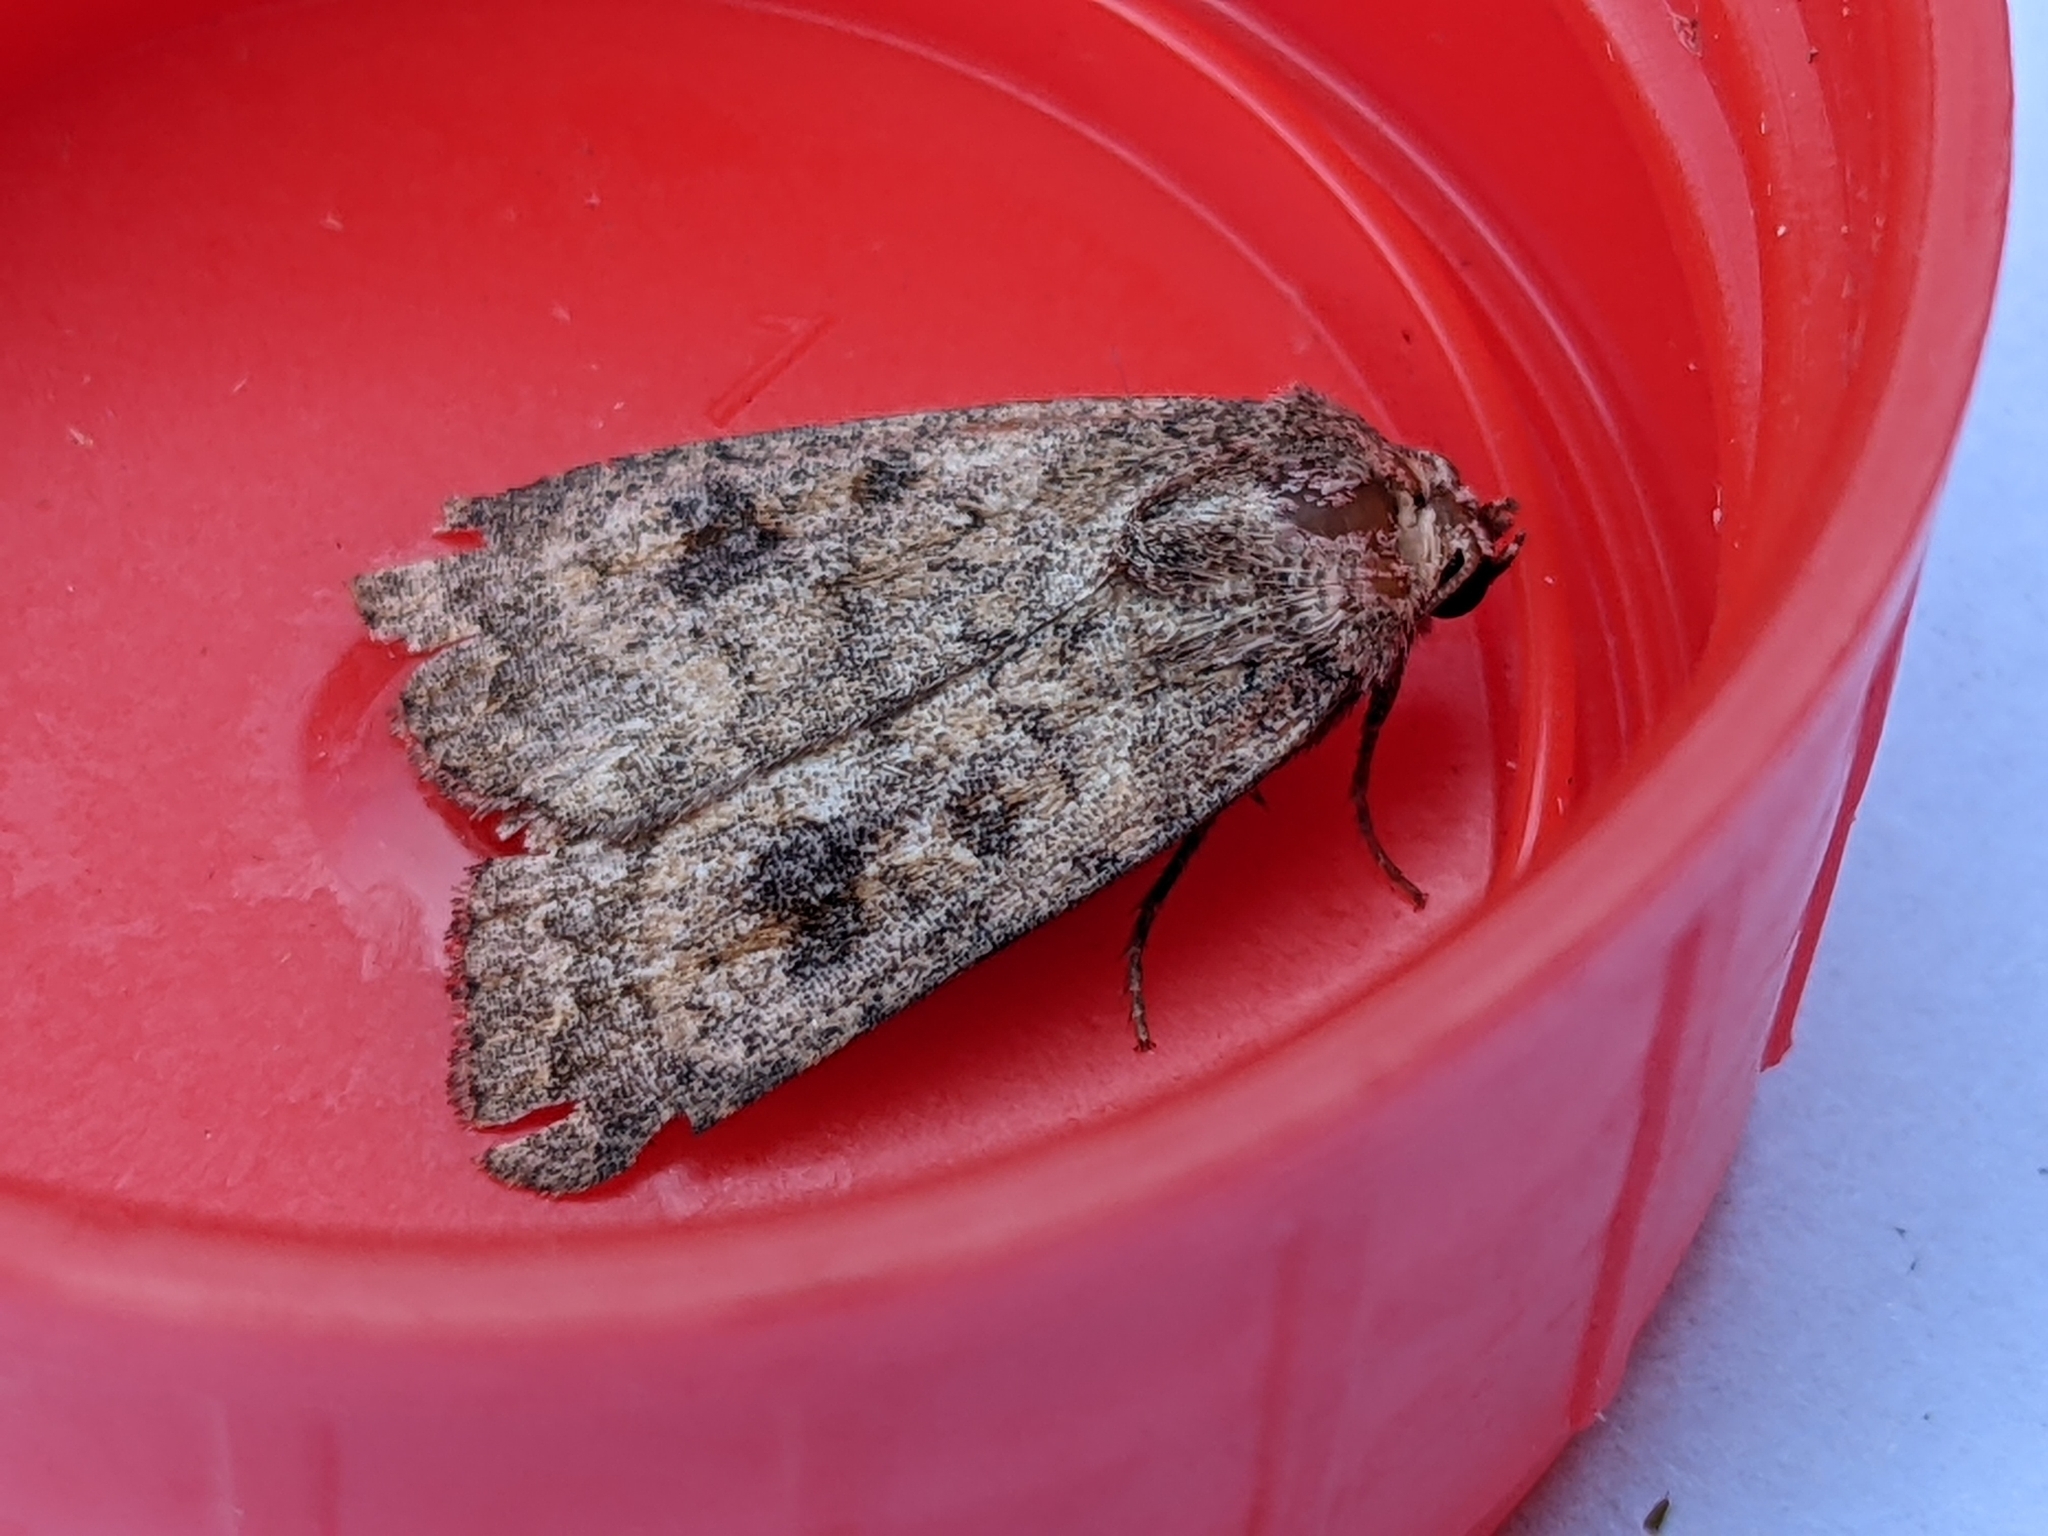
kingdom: Animalia
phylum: Arthropoda
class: Insecta
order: Lepidoptera
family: Noctuidae
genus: Caradrina
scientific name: Caradrina morpheus
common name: Mottled rustic
